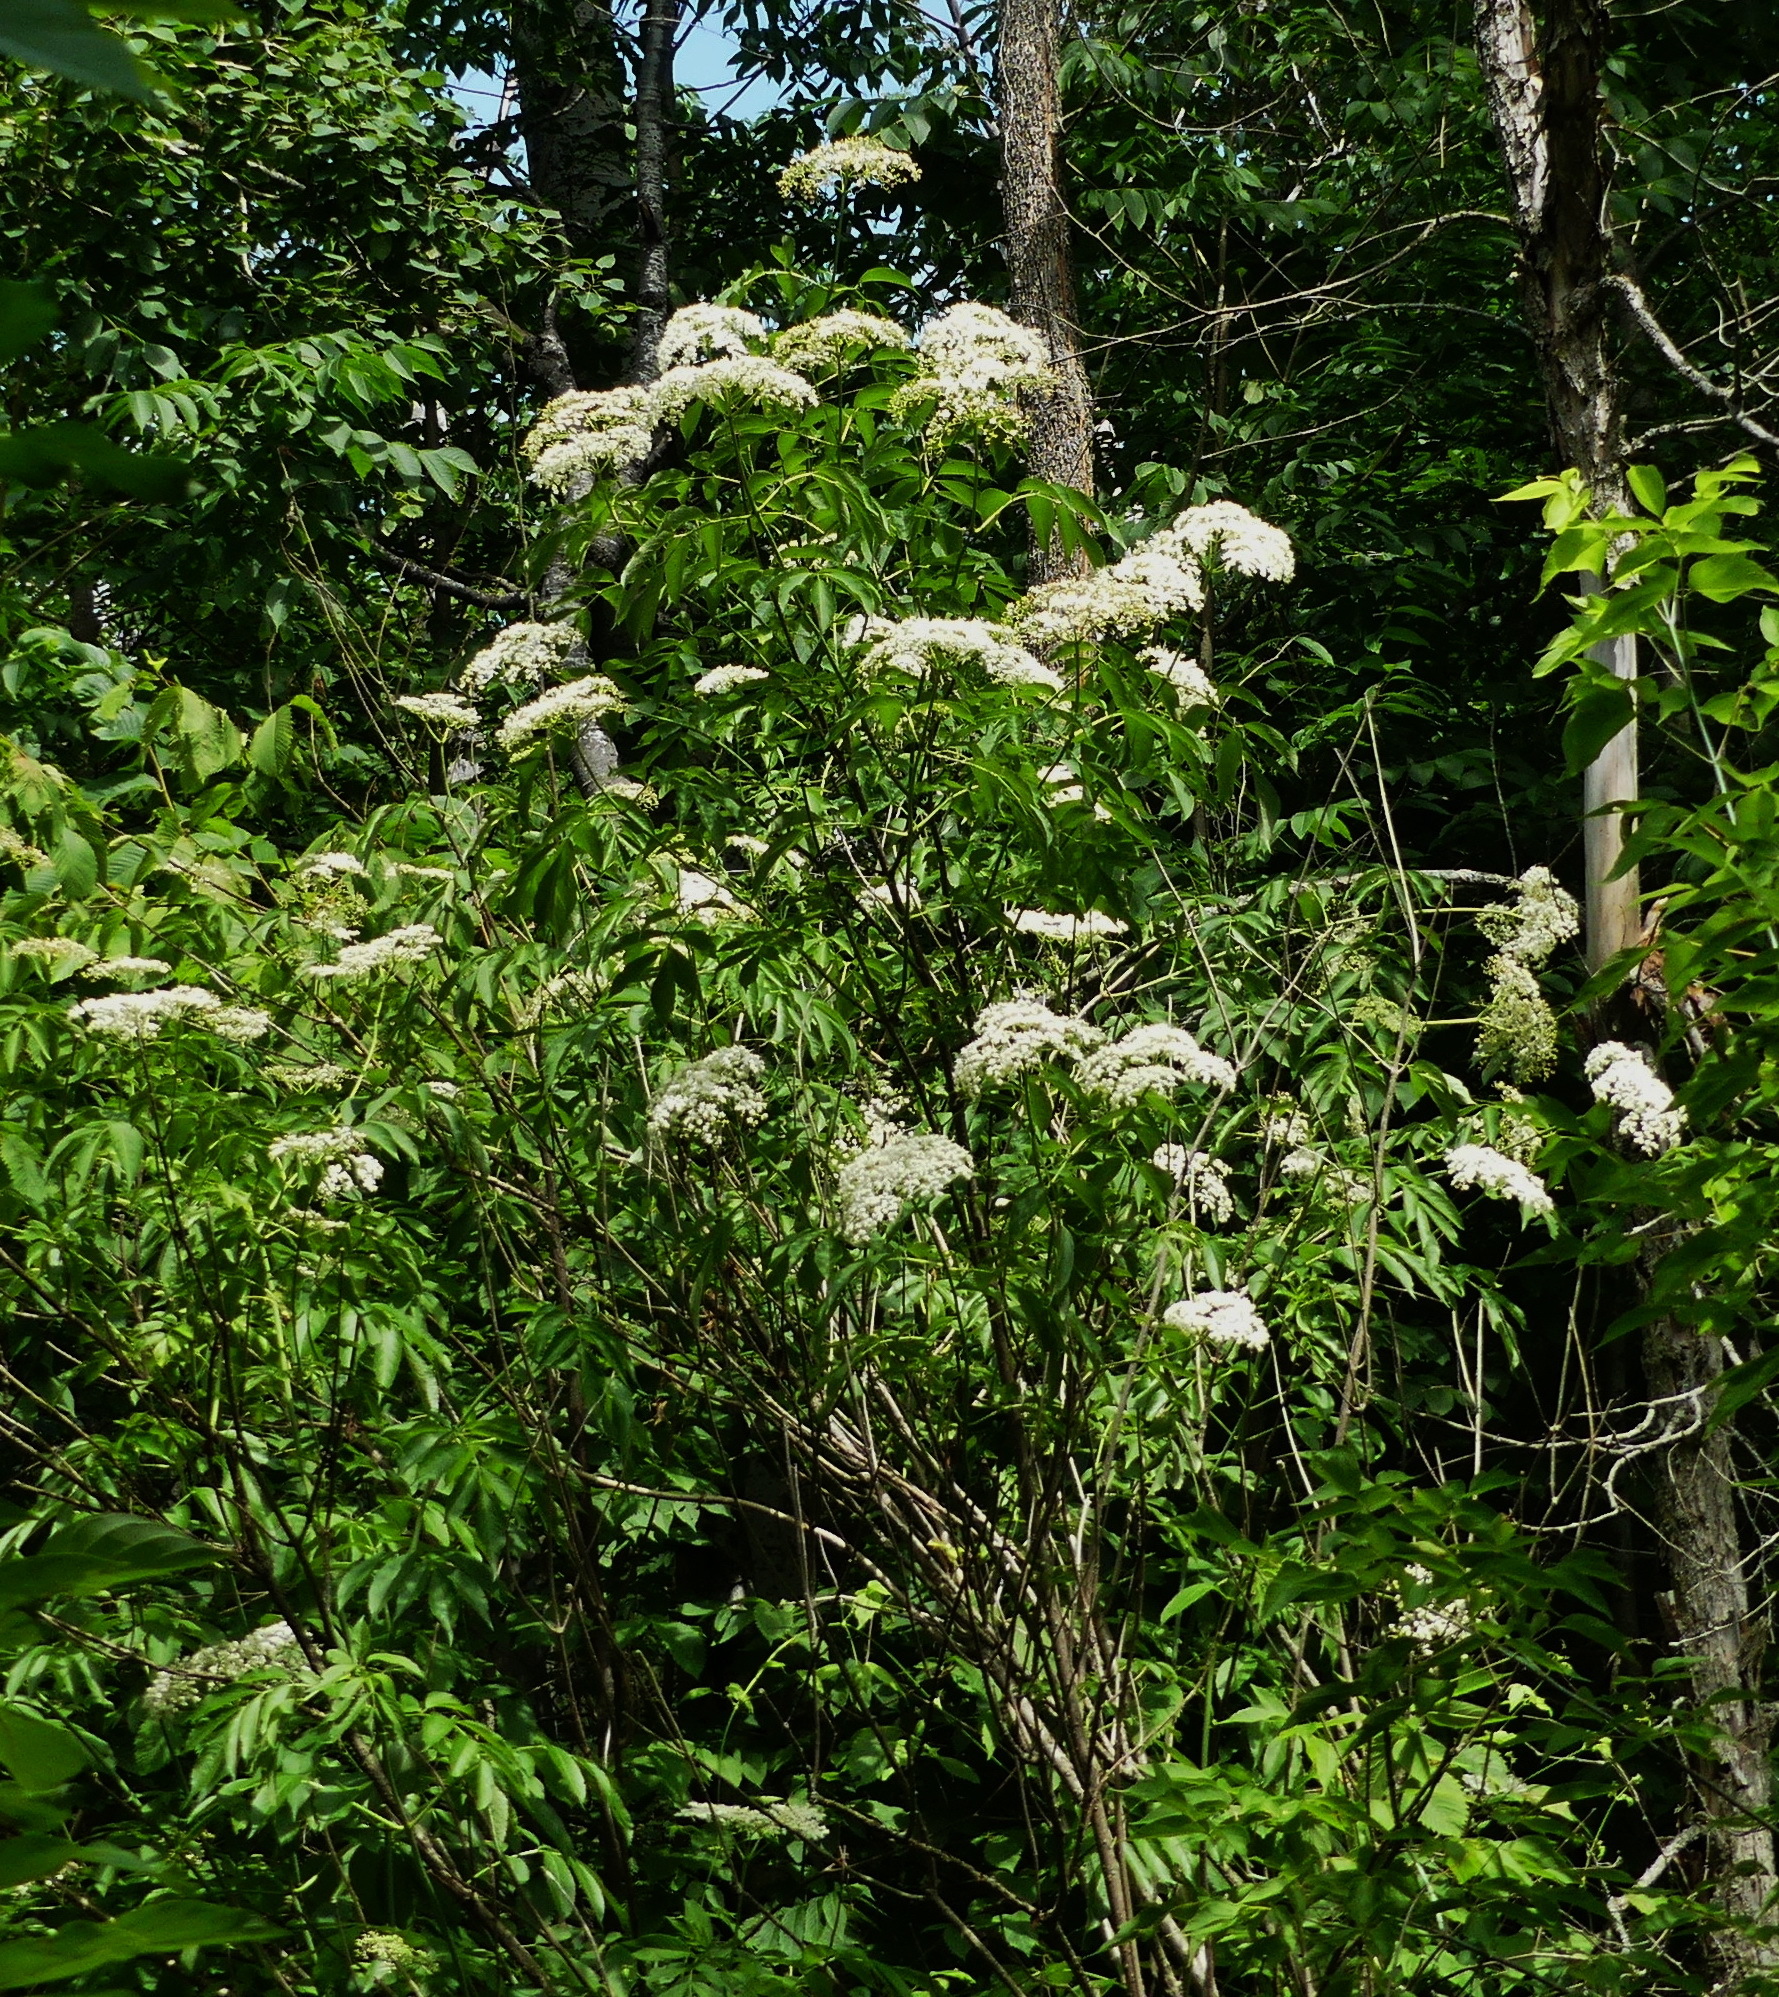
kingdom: Plantae
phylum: Tracheophyta
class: Magnoliopsida
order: Dipsacales
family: Viburnaceae
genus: Sambucus
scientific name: Sambucus canadensis
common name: American elder
